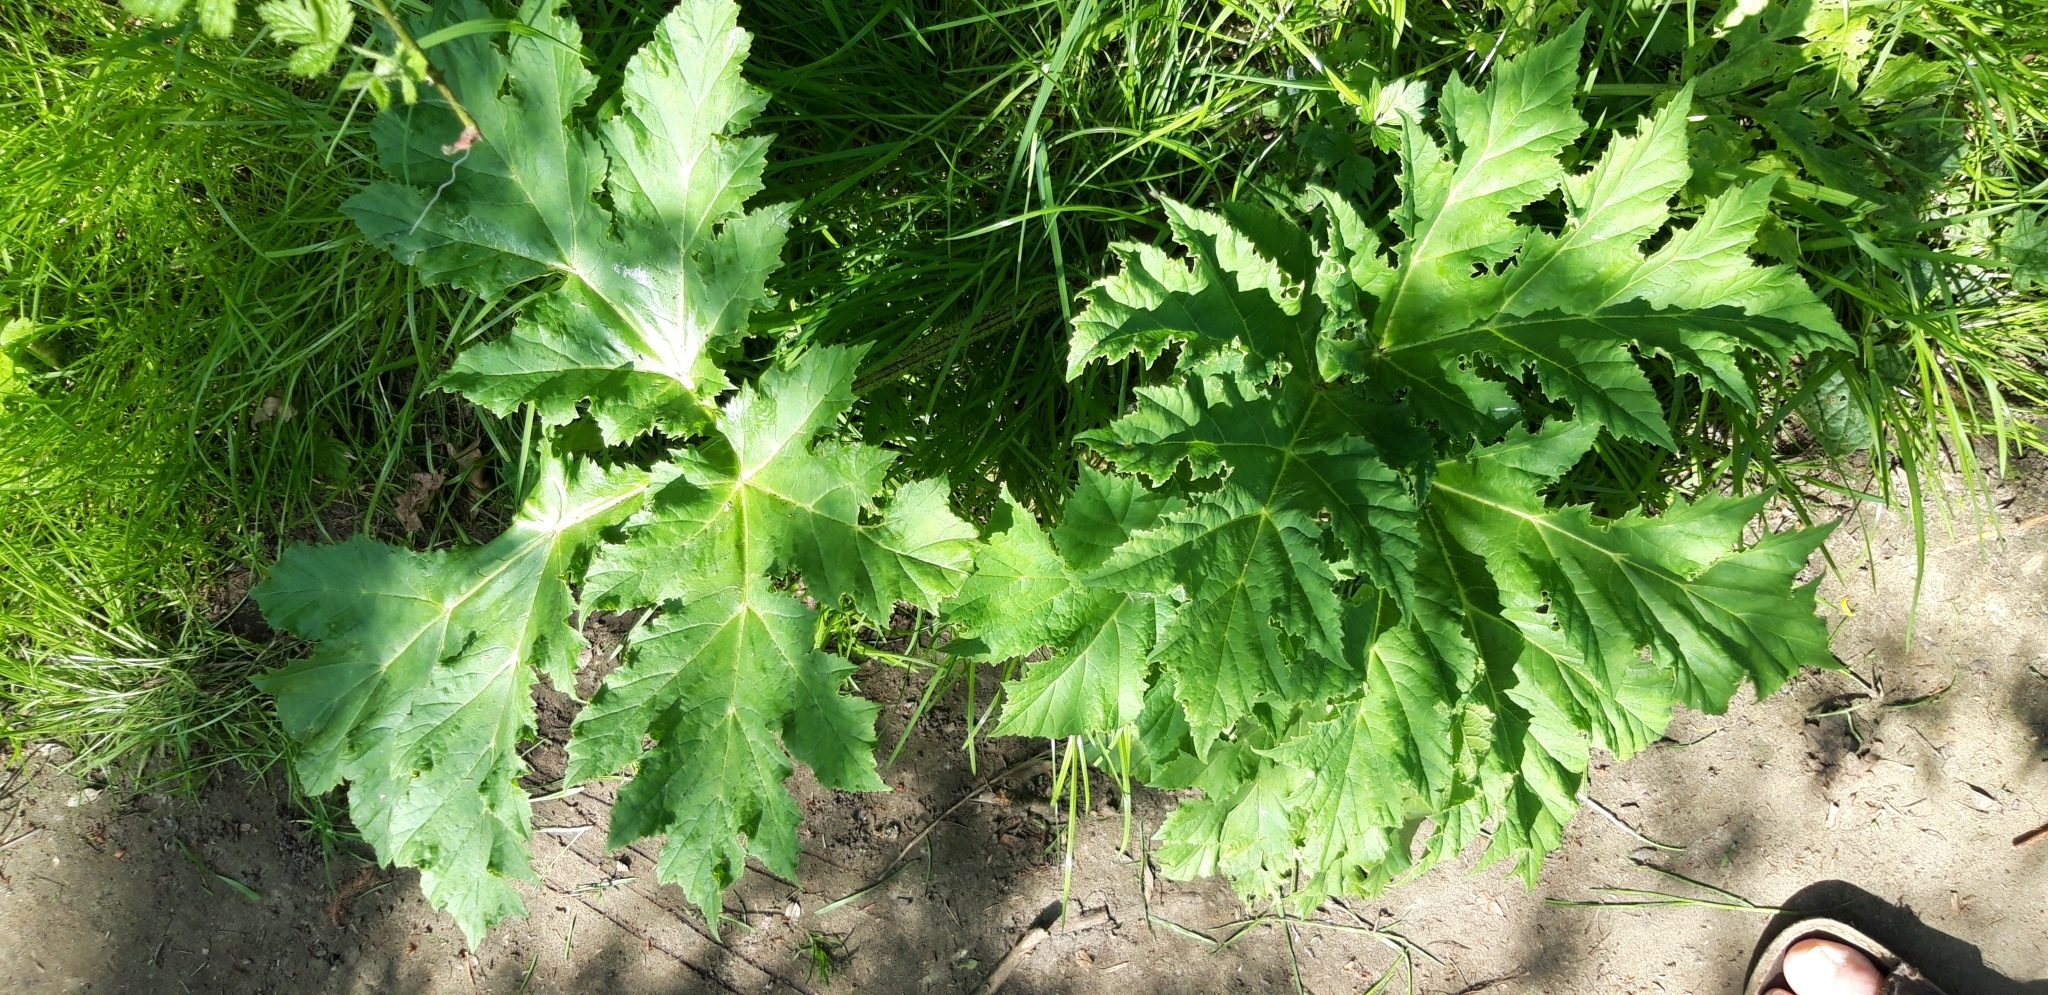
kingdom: Plantae
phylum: Tracheophyta
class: Magnoliopsida
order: Apiales
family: Apiaceae
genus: Heracleum
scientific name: Heracleum mantegazzianum
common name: Giant hogweed
